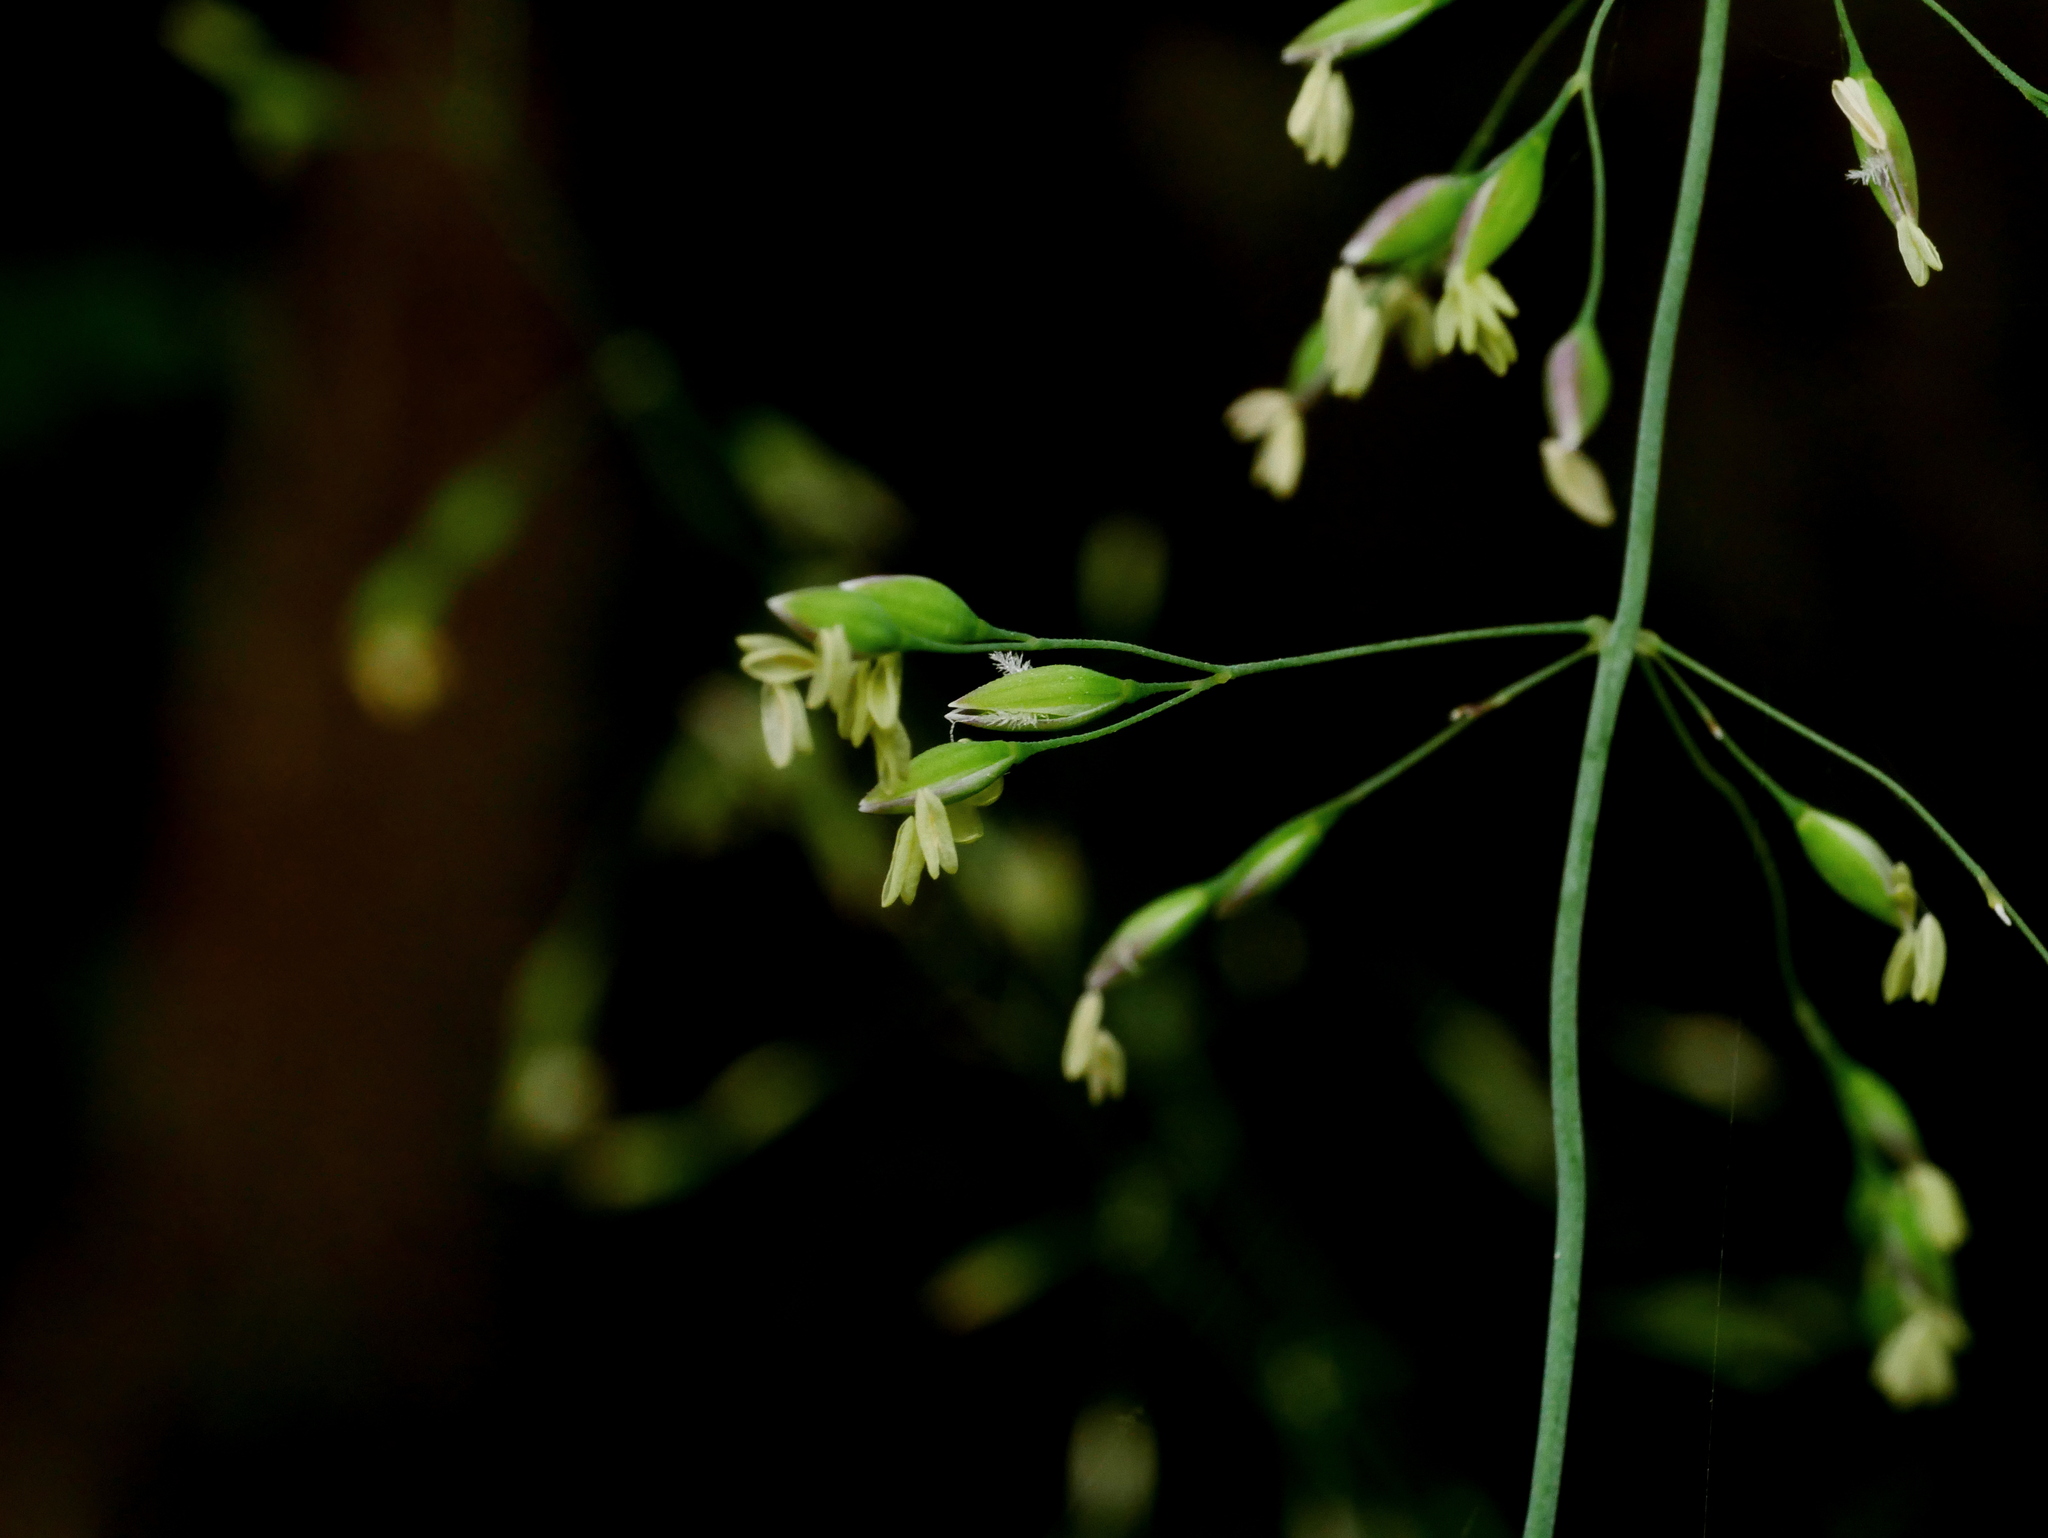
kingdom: Plantae
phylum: Tracheophyta
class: Liliopsida
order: Poales
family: Poaceae
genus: Milium
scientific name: Milium effusum
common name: Wood millet
